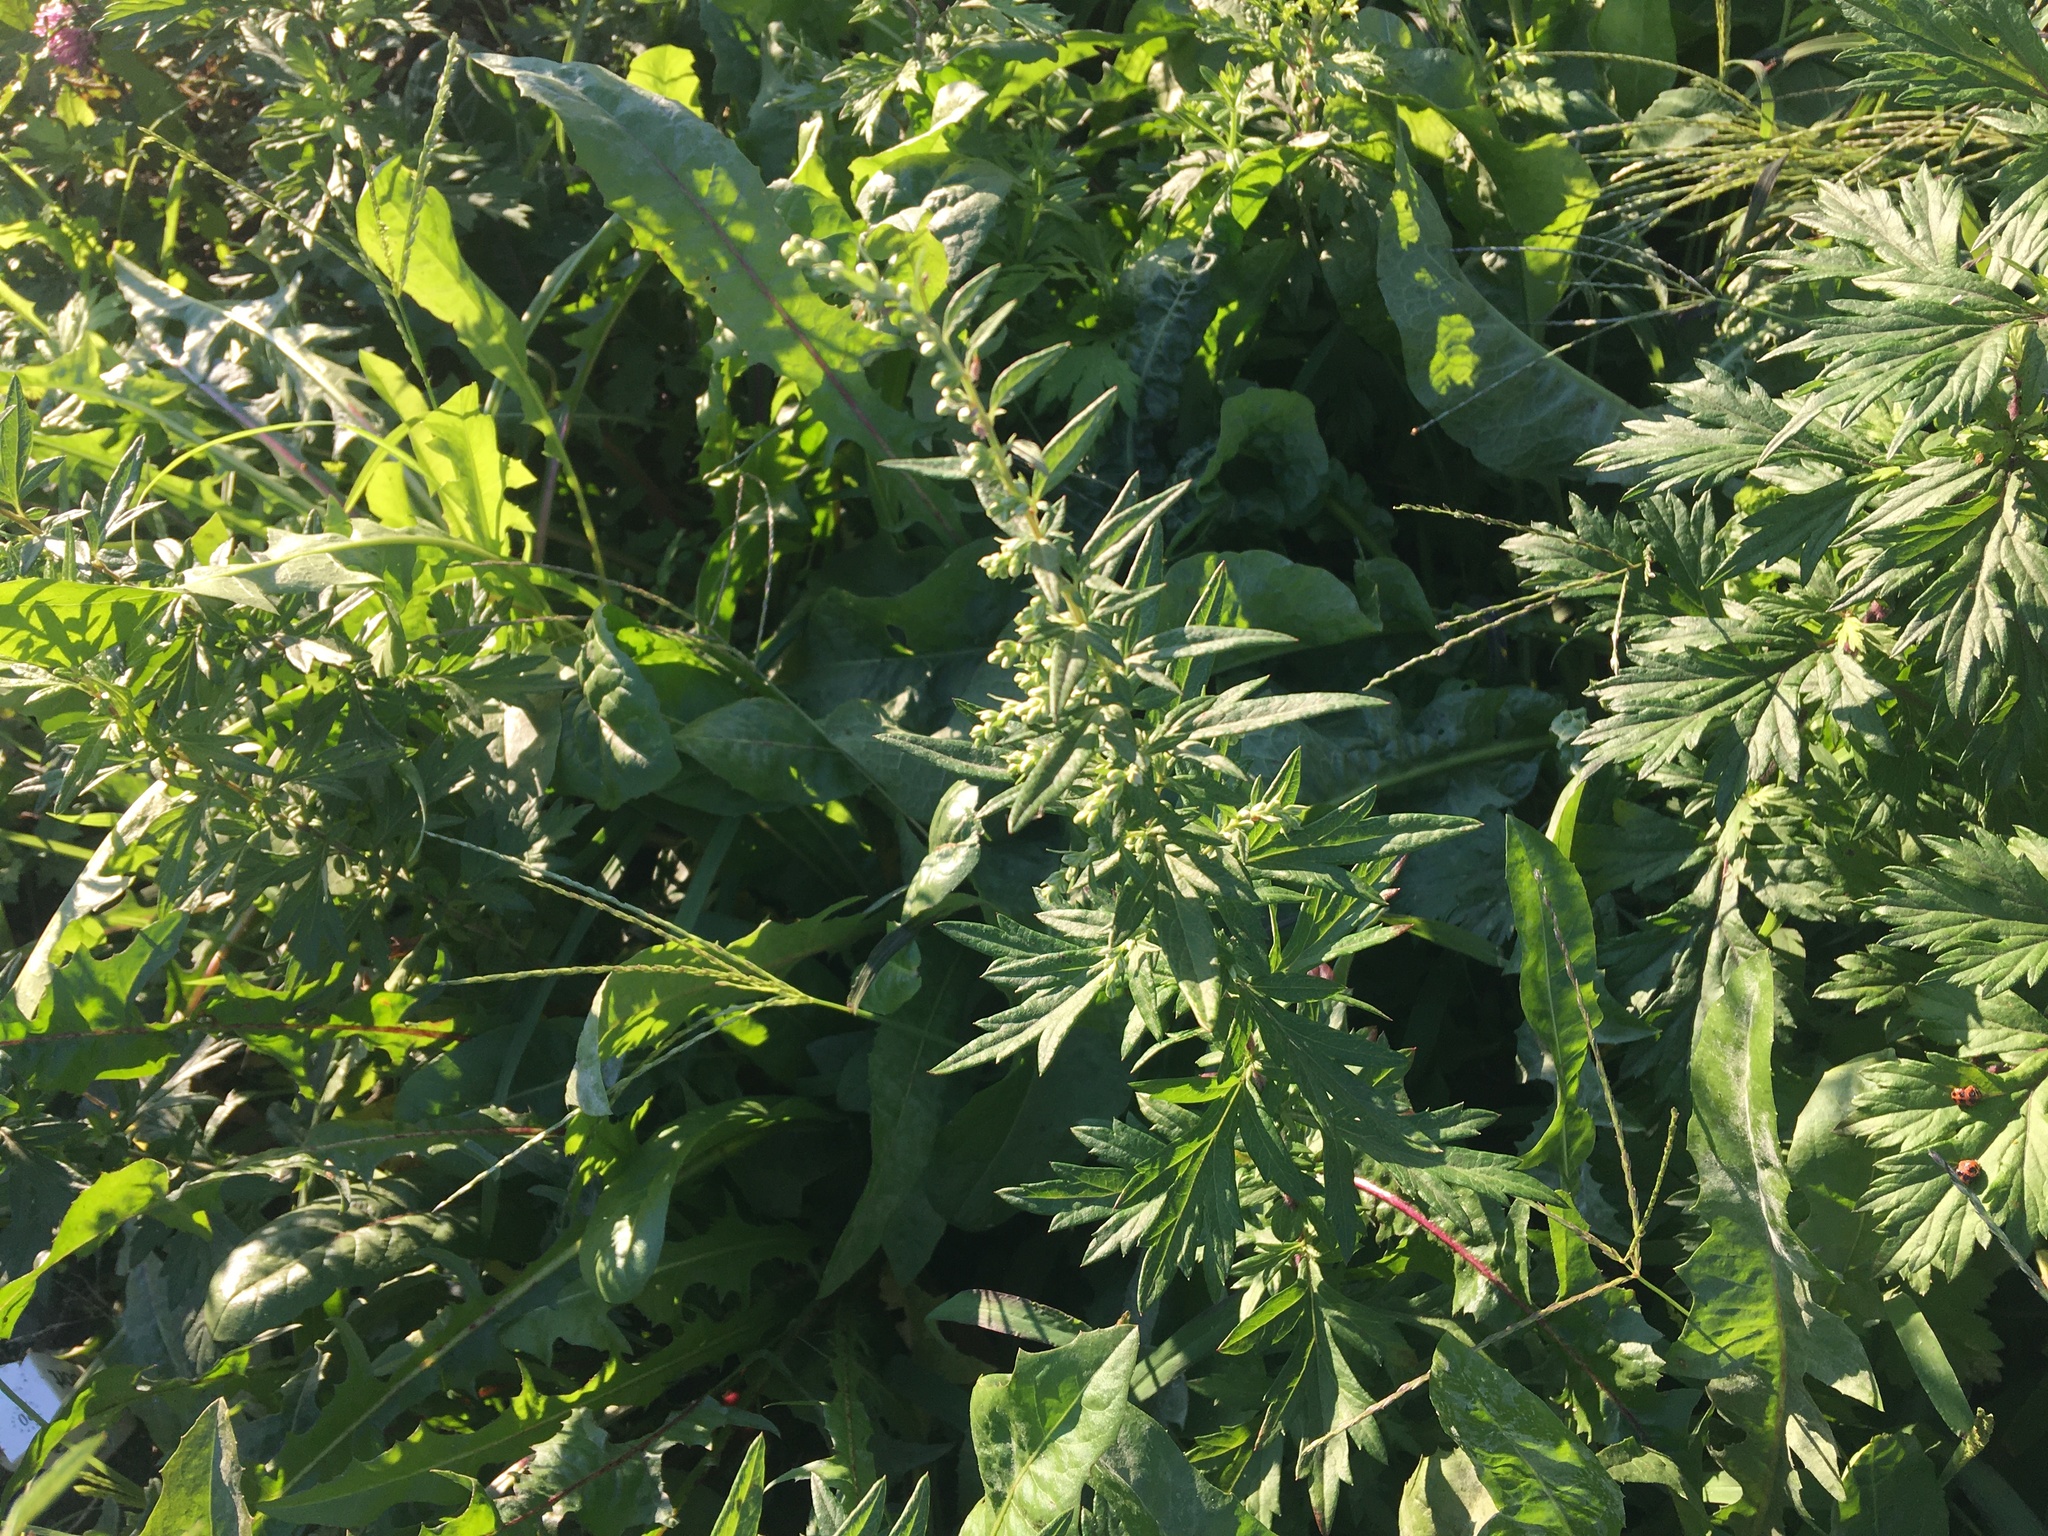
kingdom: Plantae
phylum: Tracheophyta
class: Magnoliopsida
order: Asterales
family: Asteraceae
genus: Artemisia
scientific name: Artemisia vulgaris
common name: Mugwort
